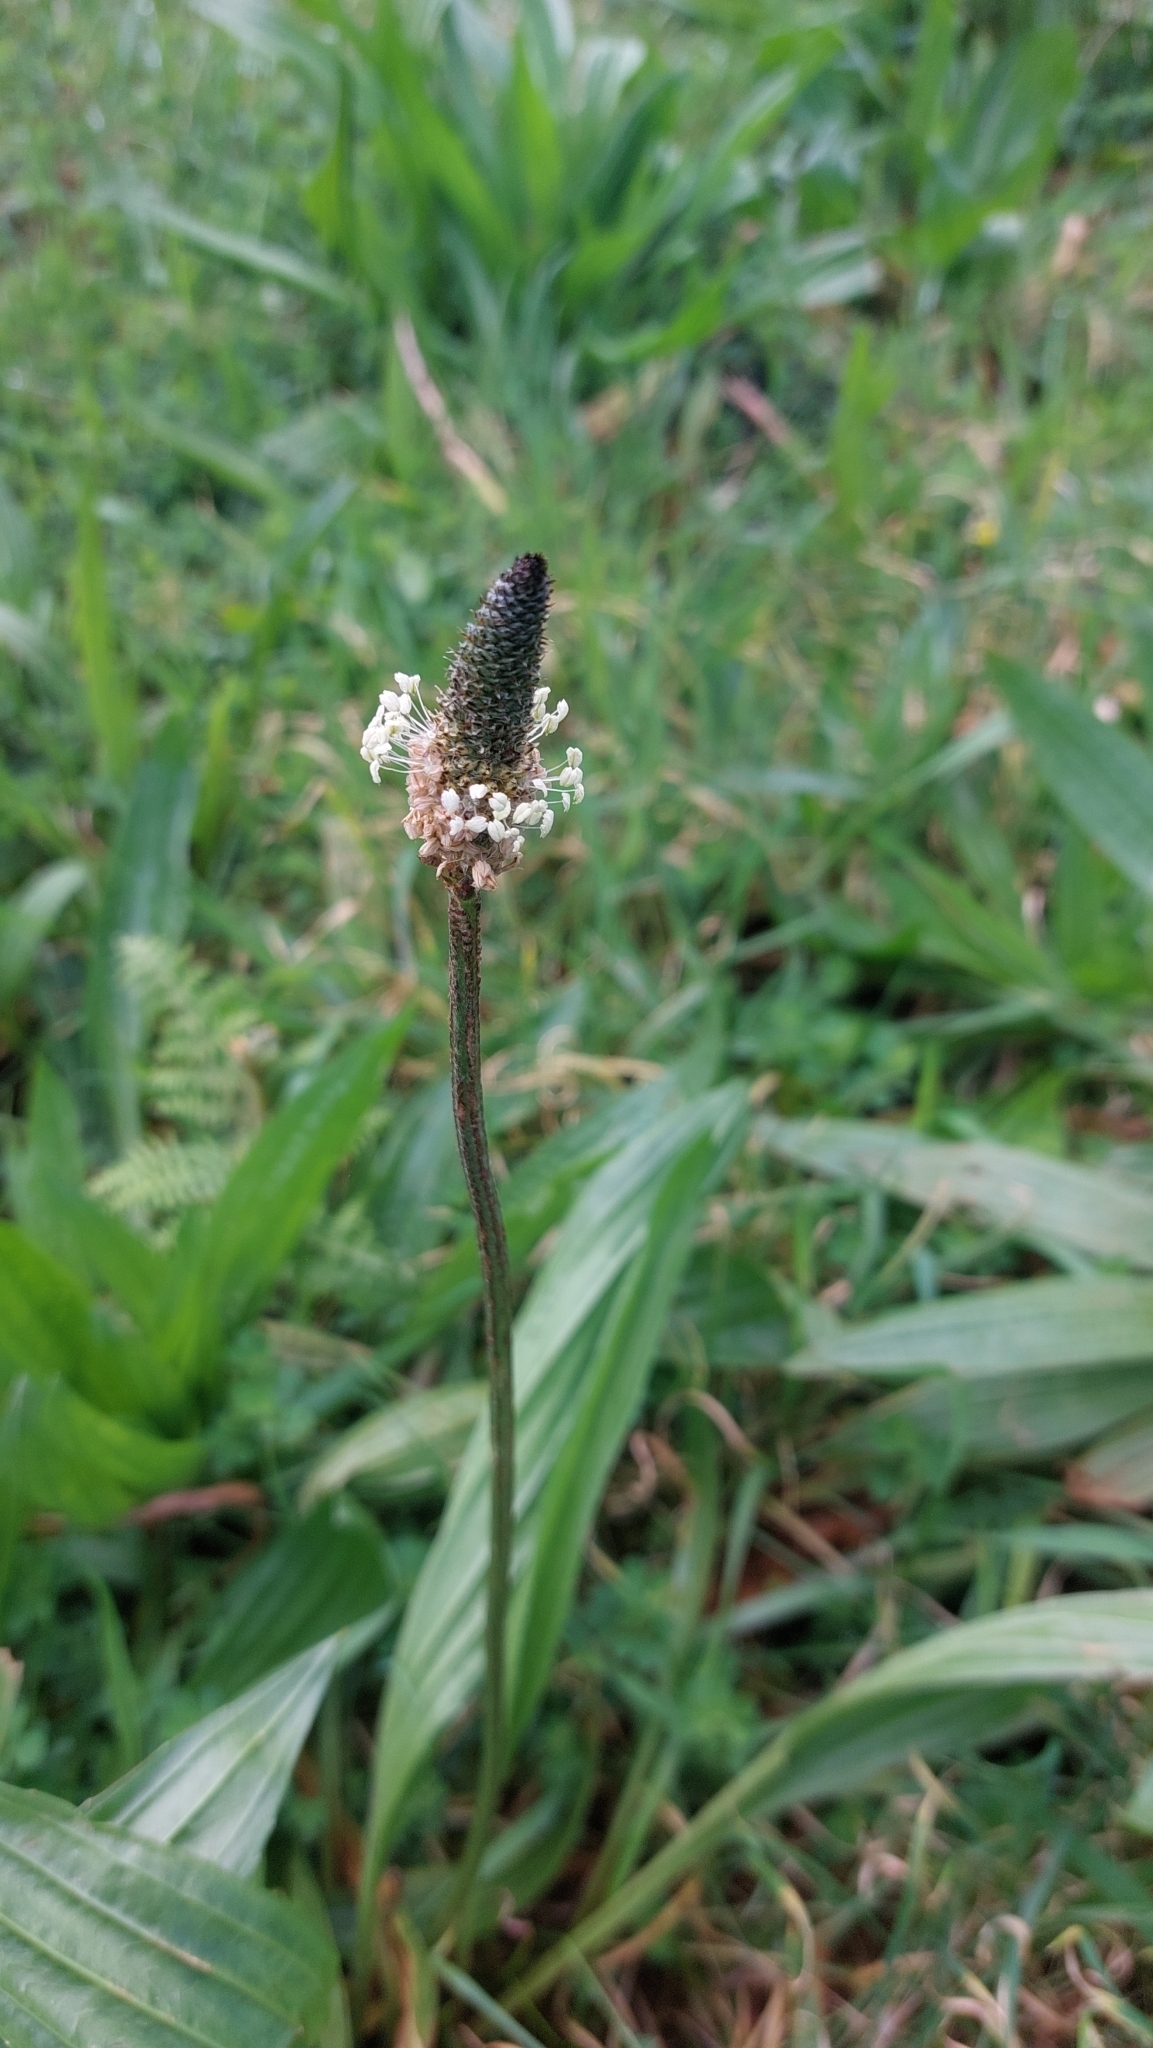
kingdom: Plantae
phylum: Tracheophyta
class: Magnoliopsida
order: Lamiales
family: Plantaginaceae
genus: Plantago
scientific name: Plantago lanceolata
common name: Ribwort plantain
